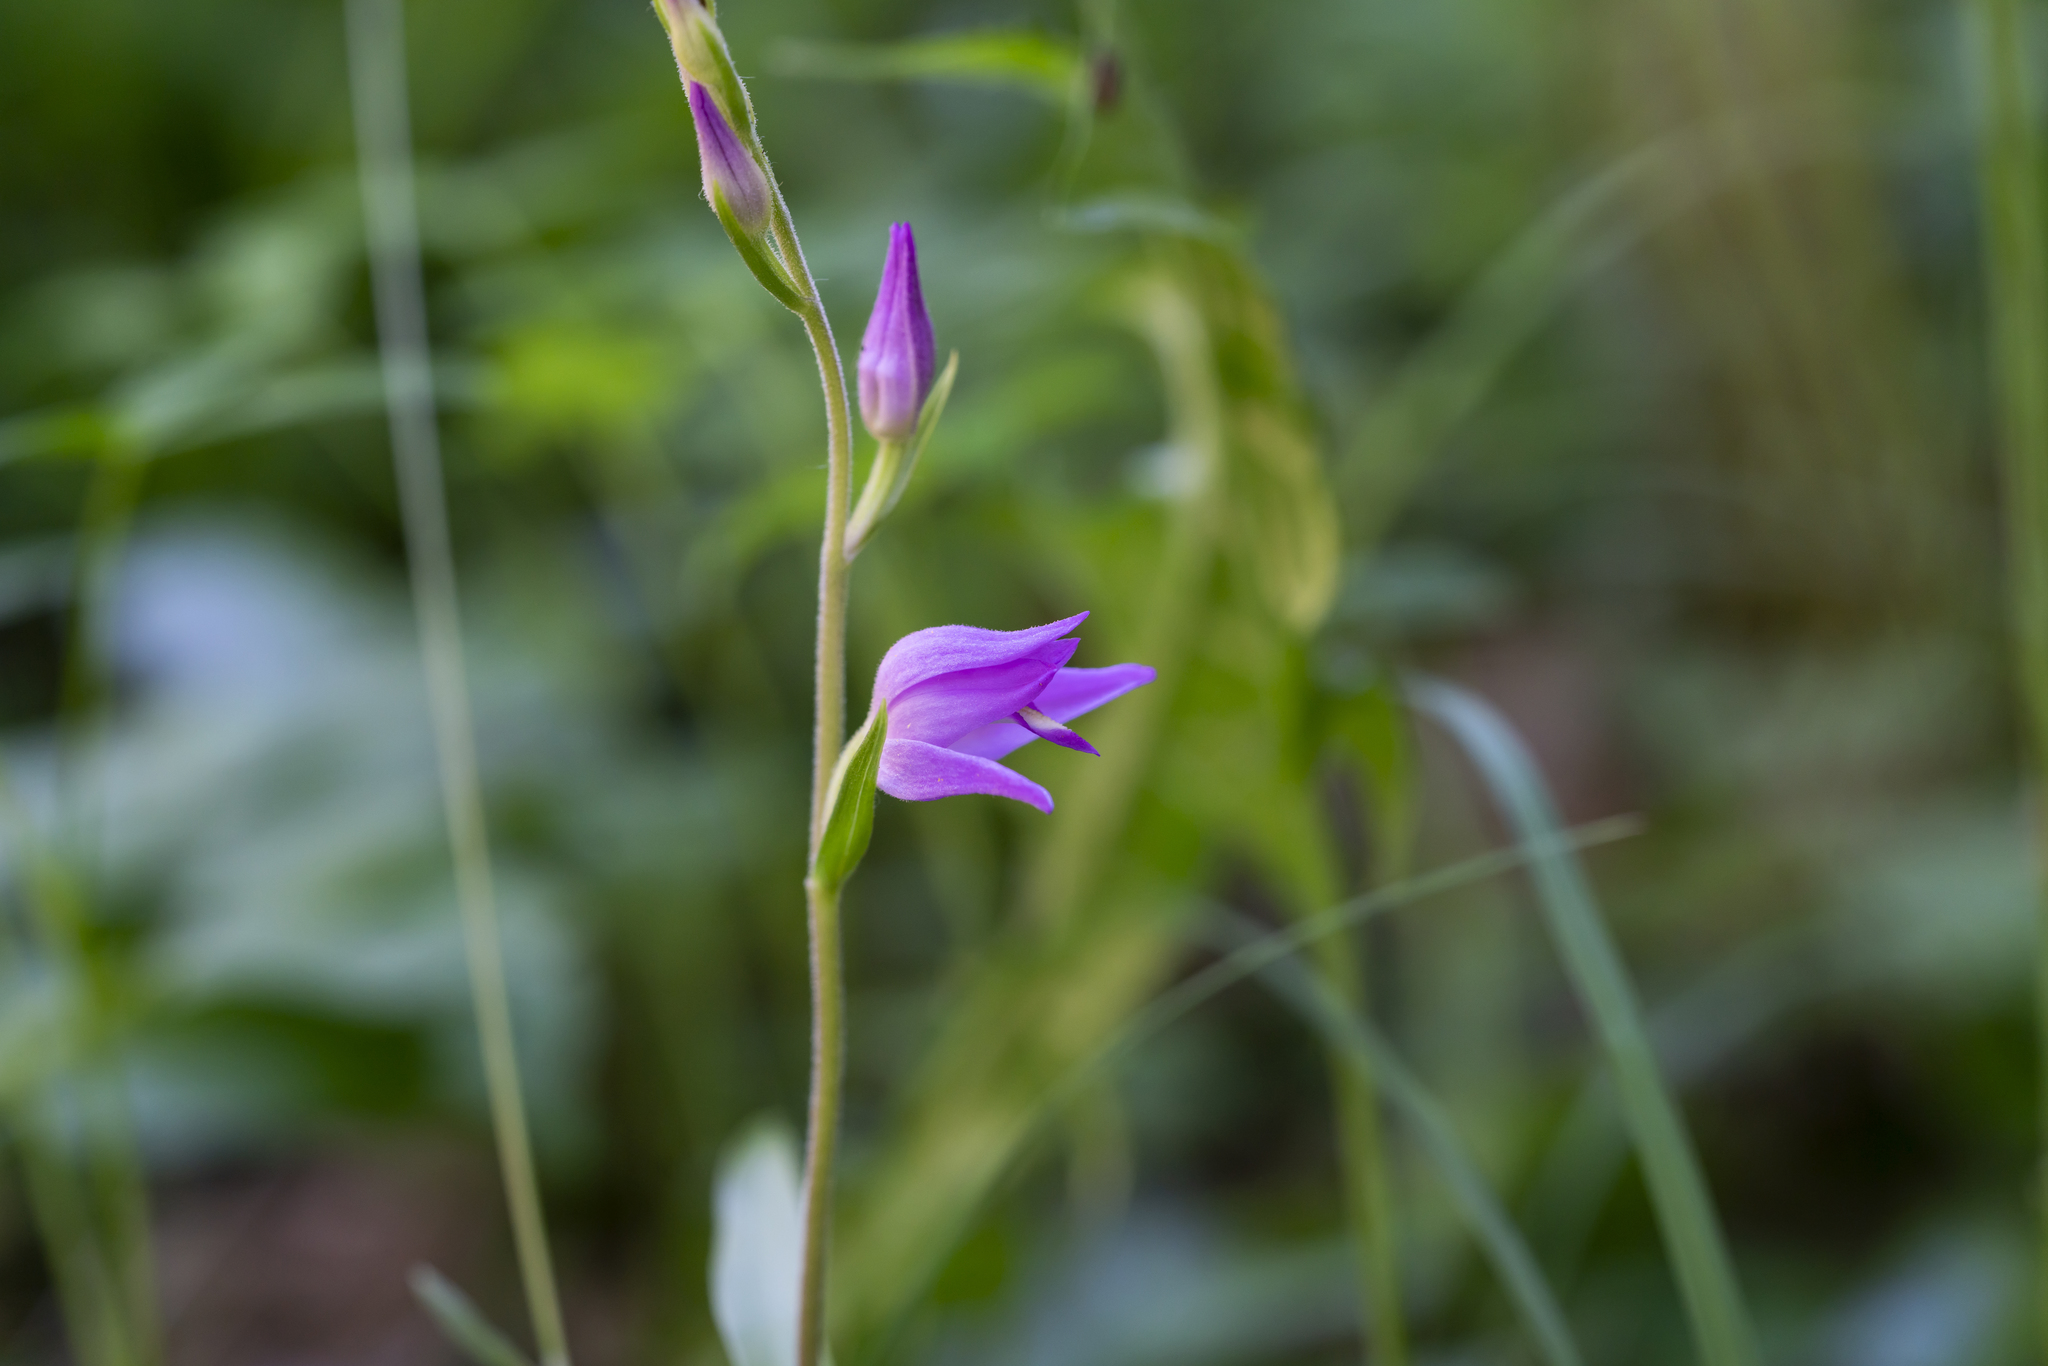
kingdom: Plantae
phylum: Tracheophyta
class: Liliopsida
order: Asparagales
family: Orchidaceae
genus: Cephalanthera
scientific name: Cephalanthera rubra
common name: Red helleborine
